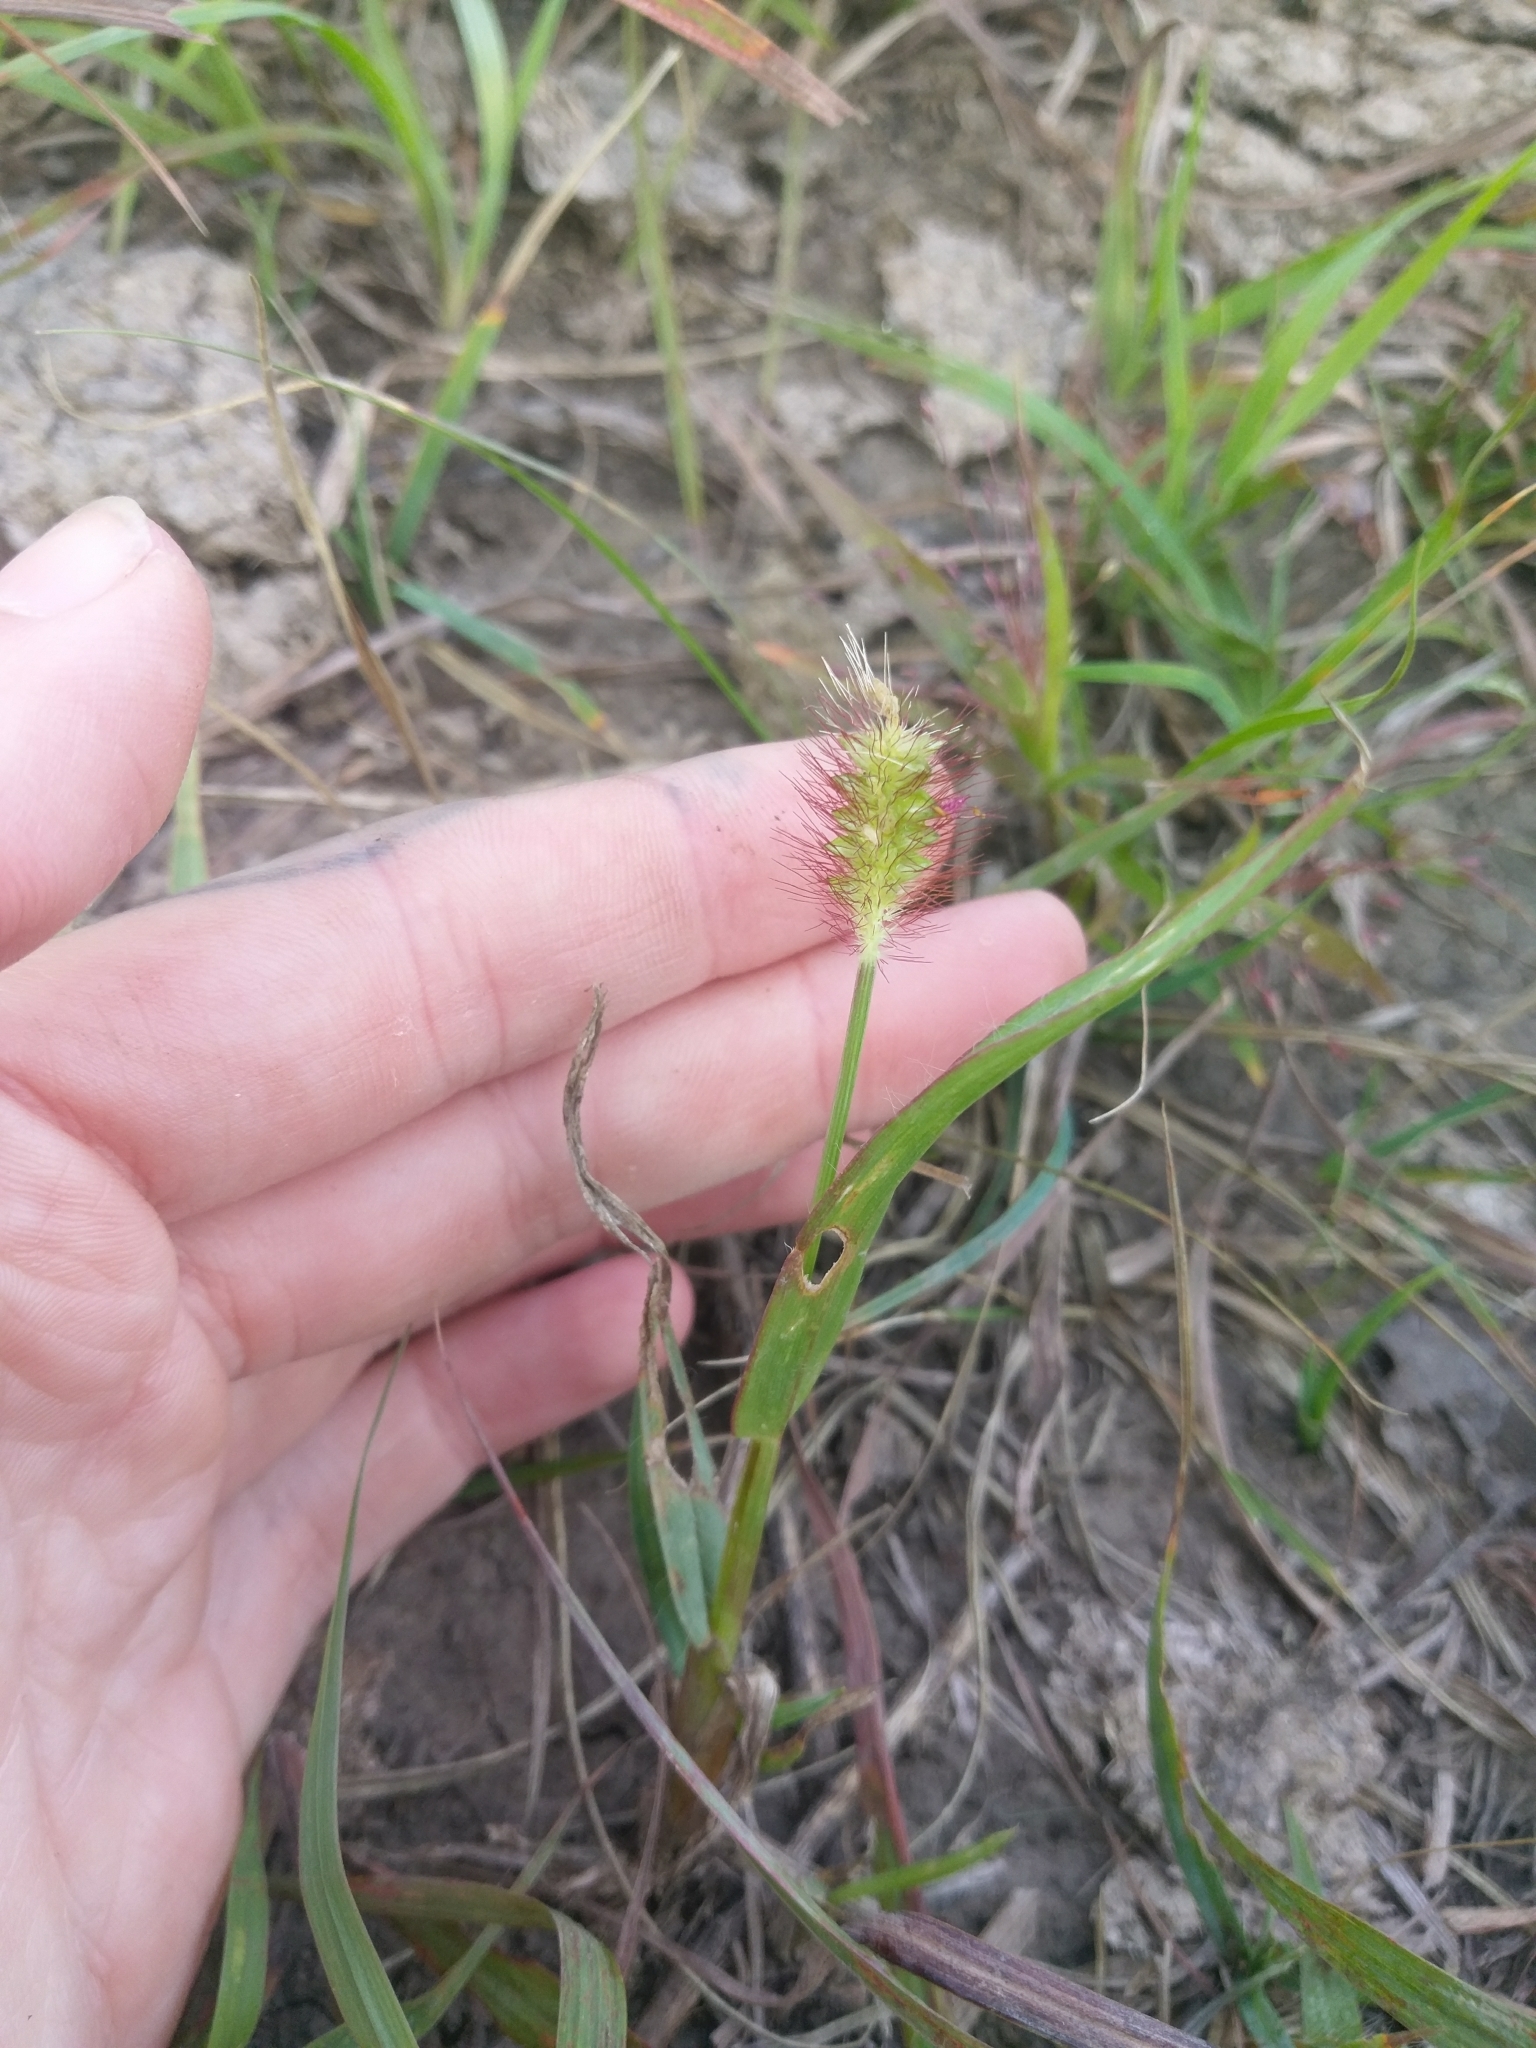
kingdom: Plantae
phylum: Tracheophyta
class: Liliopsida
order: Poales
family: Poaceae
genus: Setaria
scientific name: Setaria pumila
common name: Yellow bristle-grass
